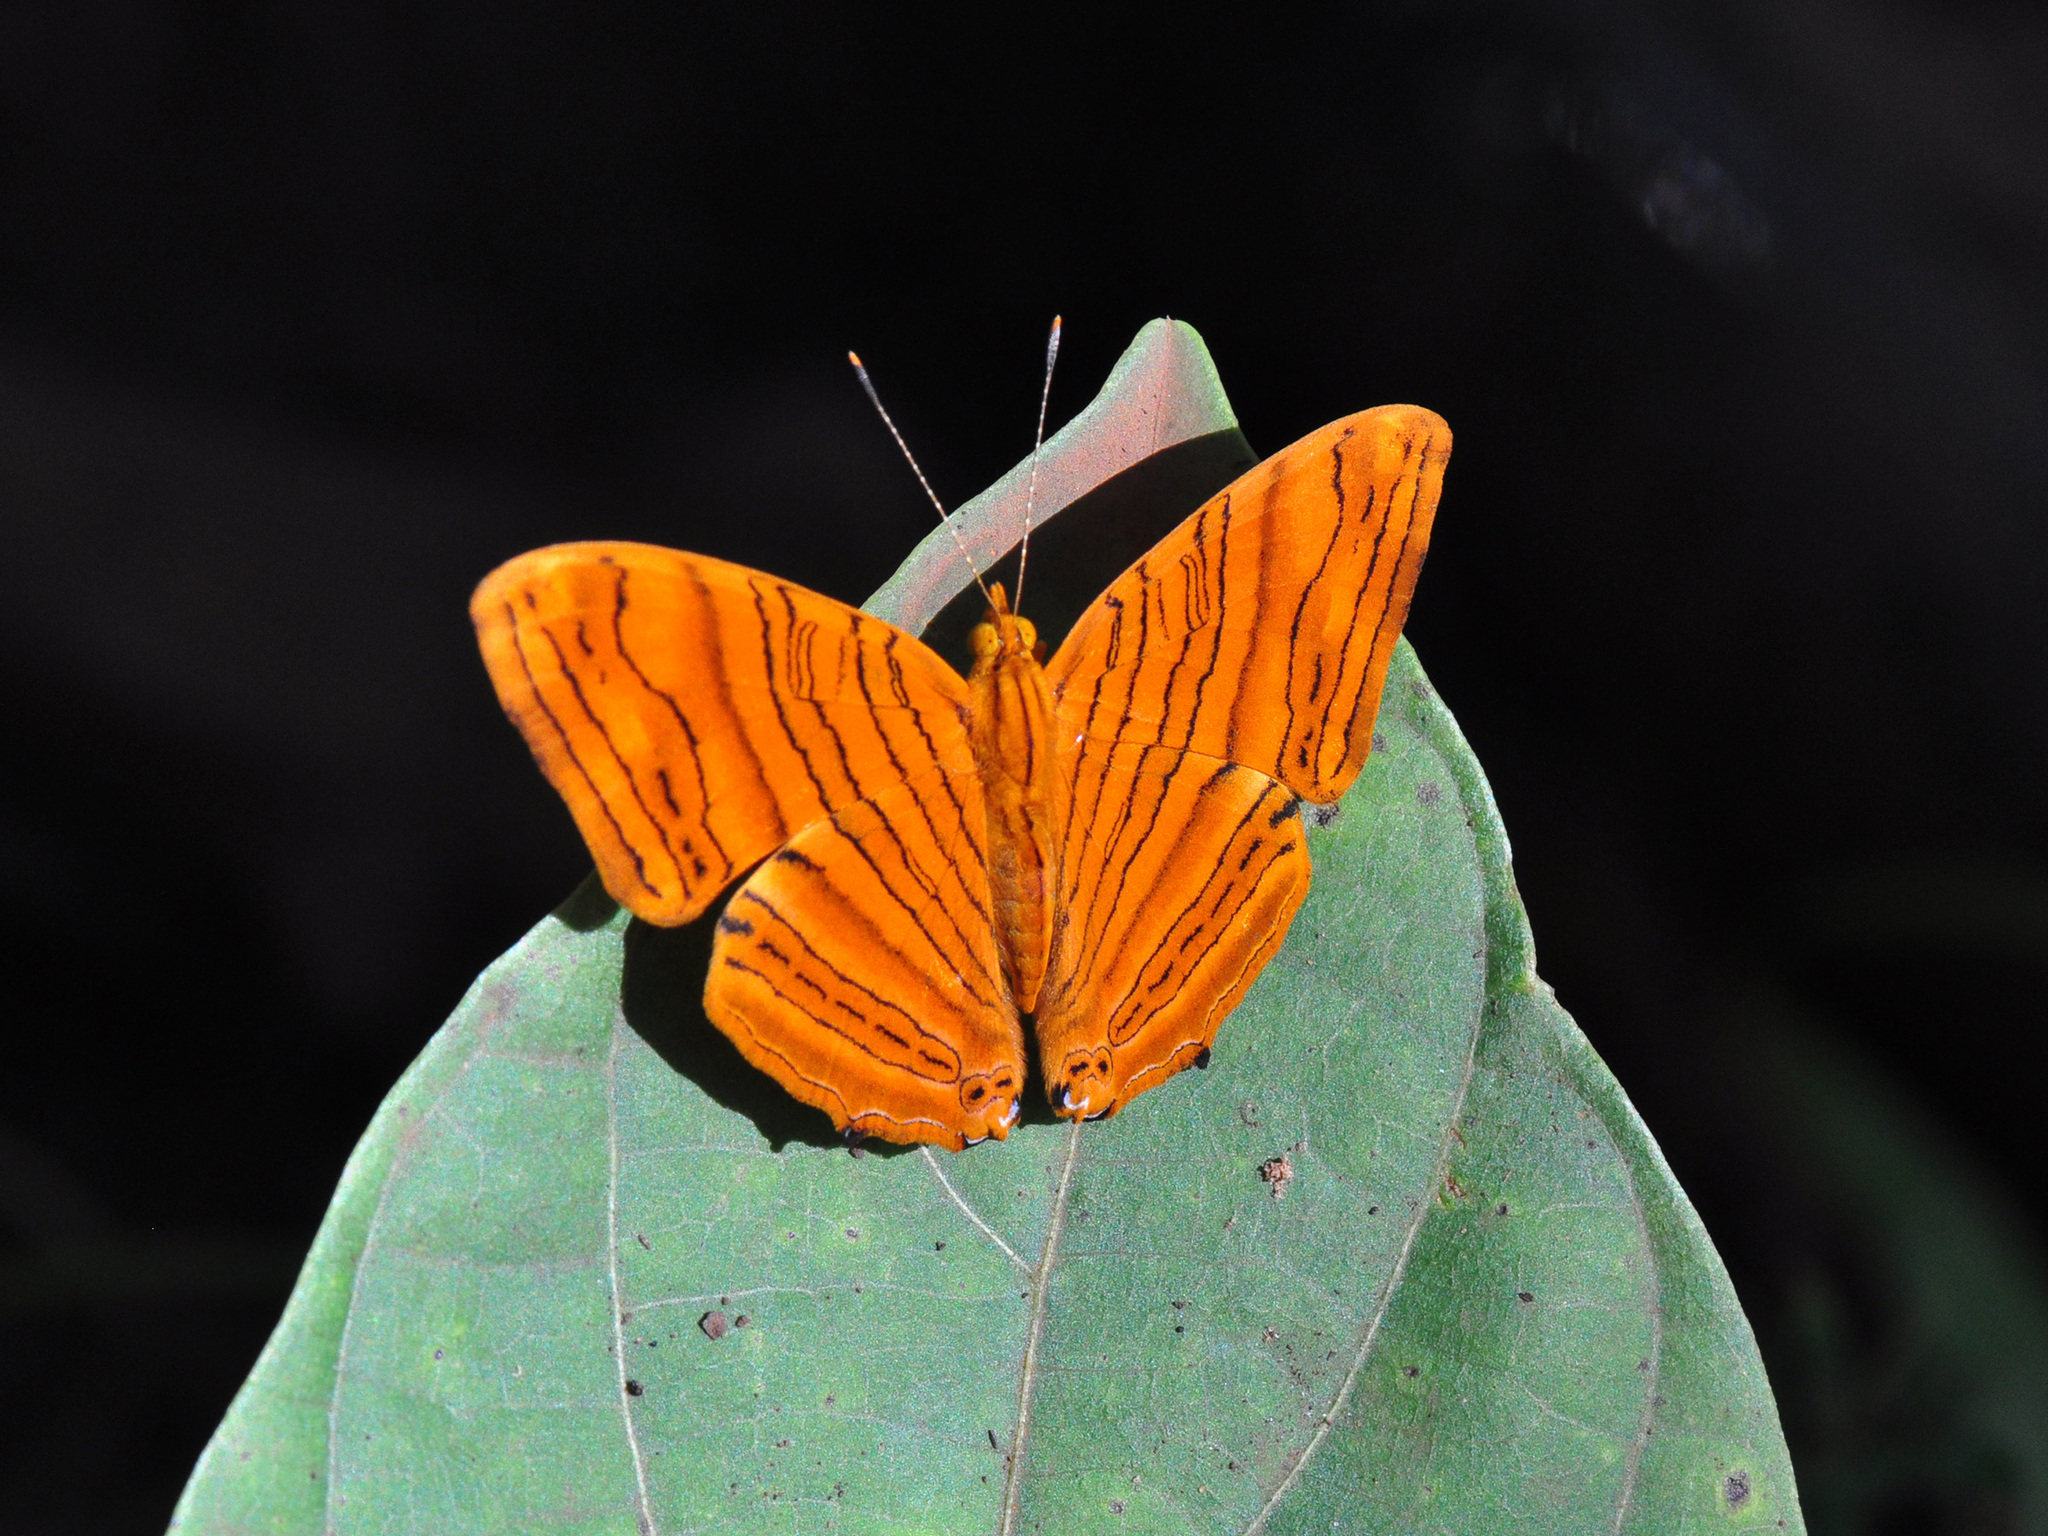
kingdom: Animalia
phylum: Arthropoda
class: Insecta
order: Lepidoptera
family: Nymphalidae
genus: Chersonesia
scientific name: Chersonesia intermedia
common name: Intermediate maplet
